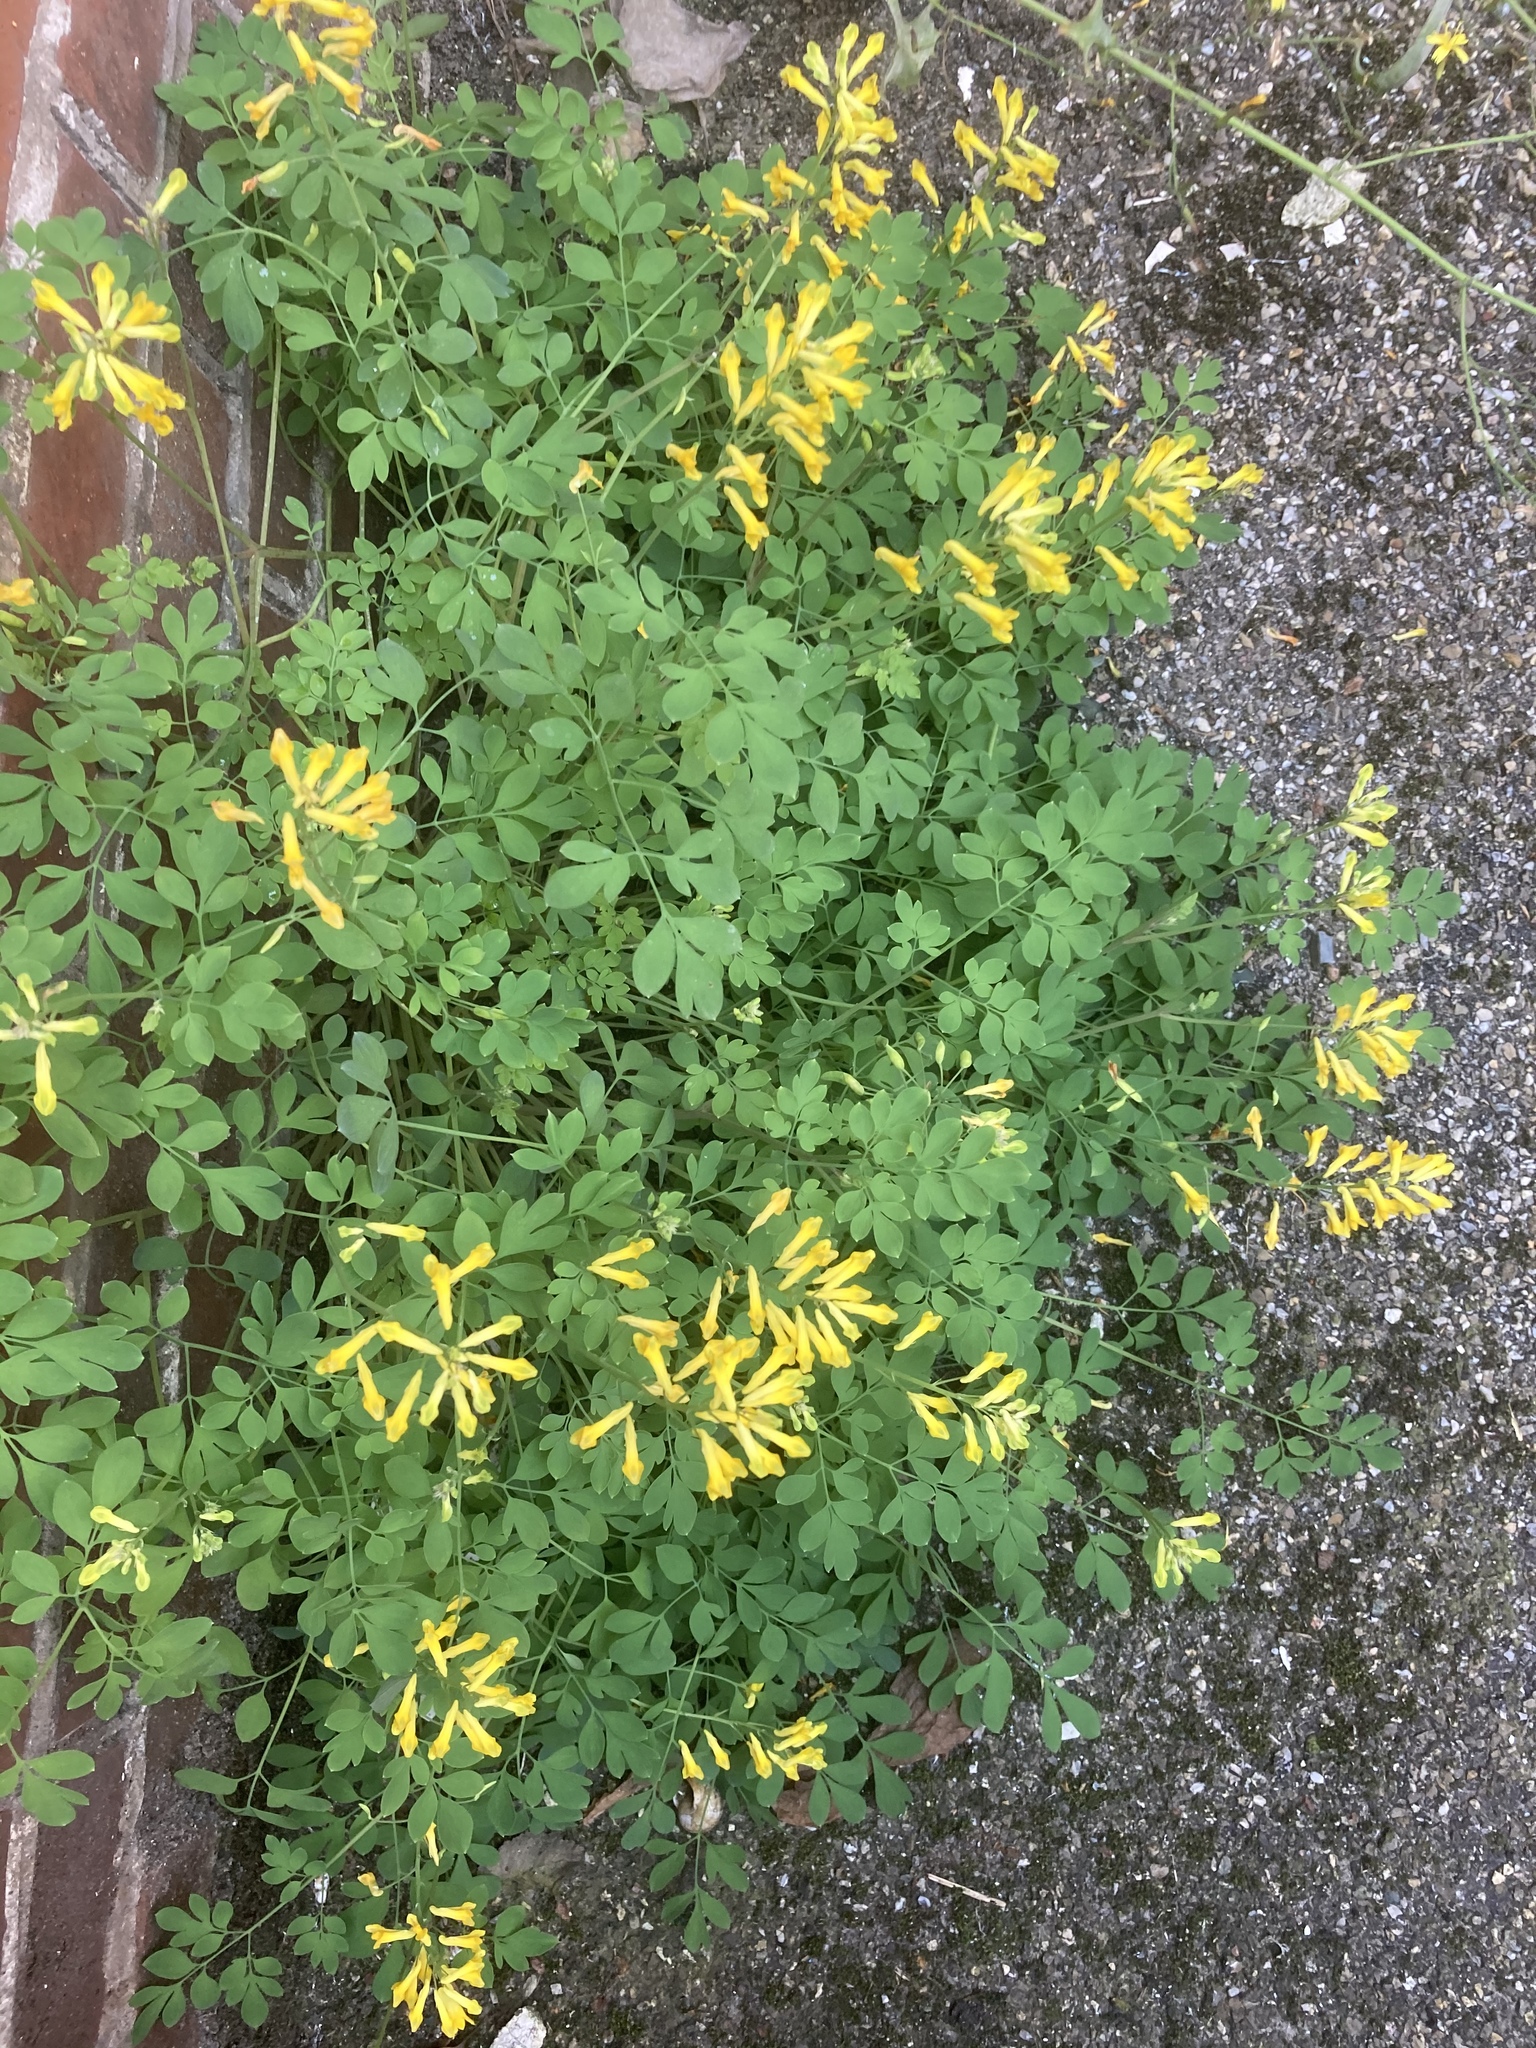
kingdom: Plantae
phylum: Tracheophyta
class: Magnoliopsida
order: Ranunculales
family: Papaveraceae
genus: Pseudofumaria
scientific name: Pseudofumaria lutea
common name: Yellow corydalis
